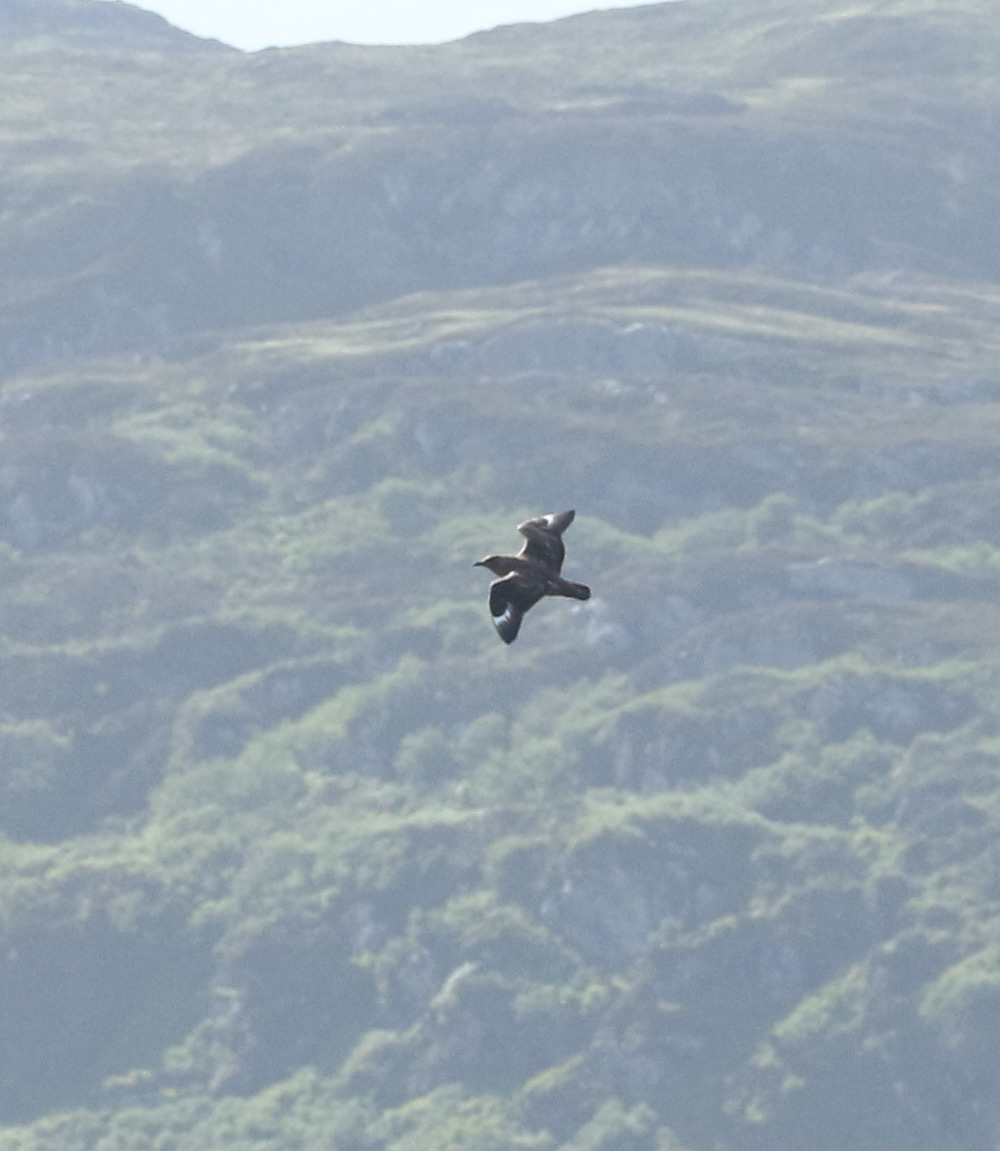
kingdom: Animalia
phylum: Chordata
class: Aves
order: Charadriiformes
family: Stercorariidae
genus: Stercorarius
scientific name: Stercorarius skua
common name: Great skua
